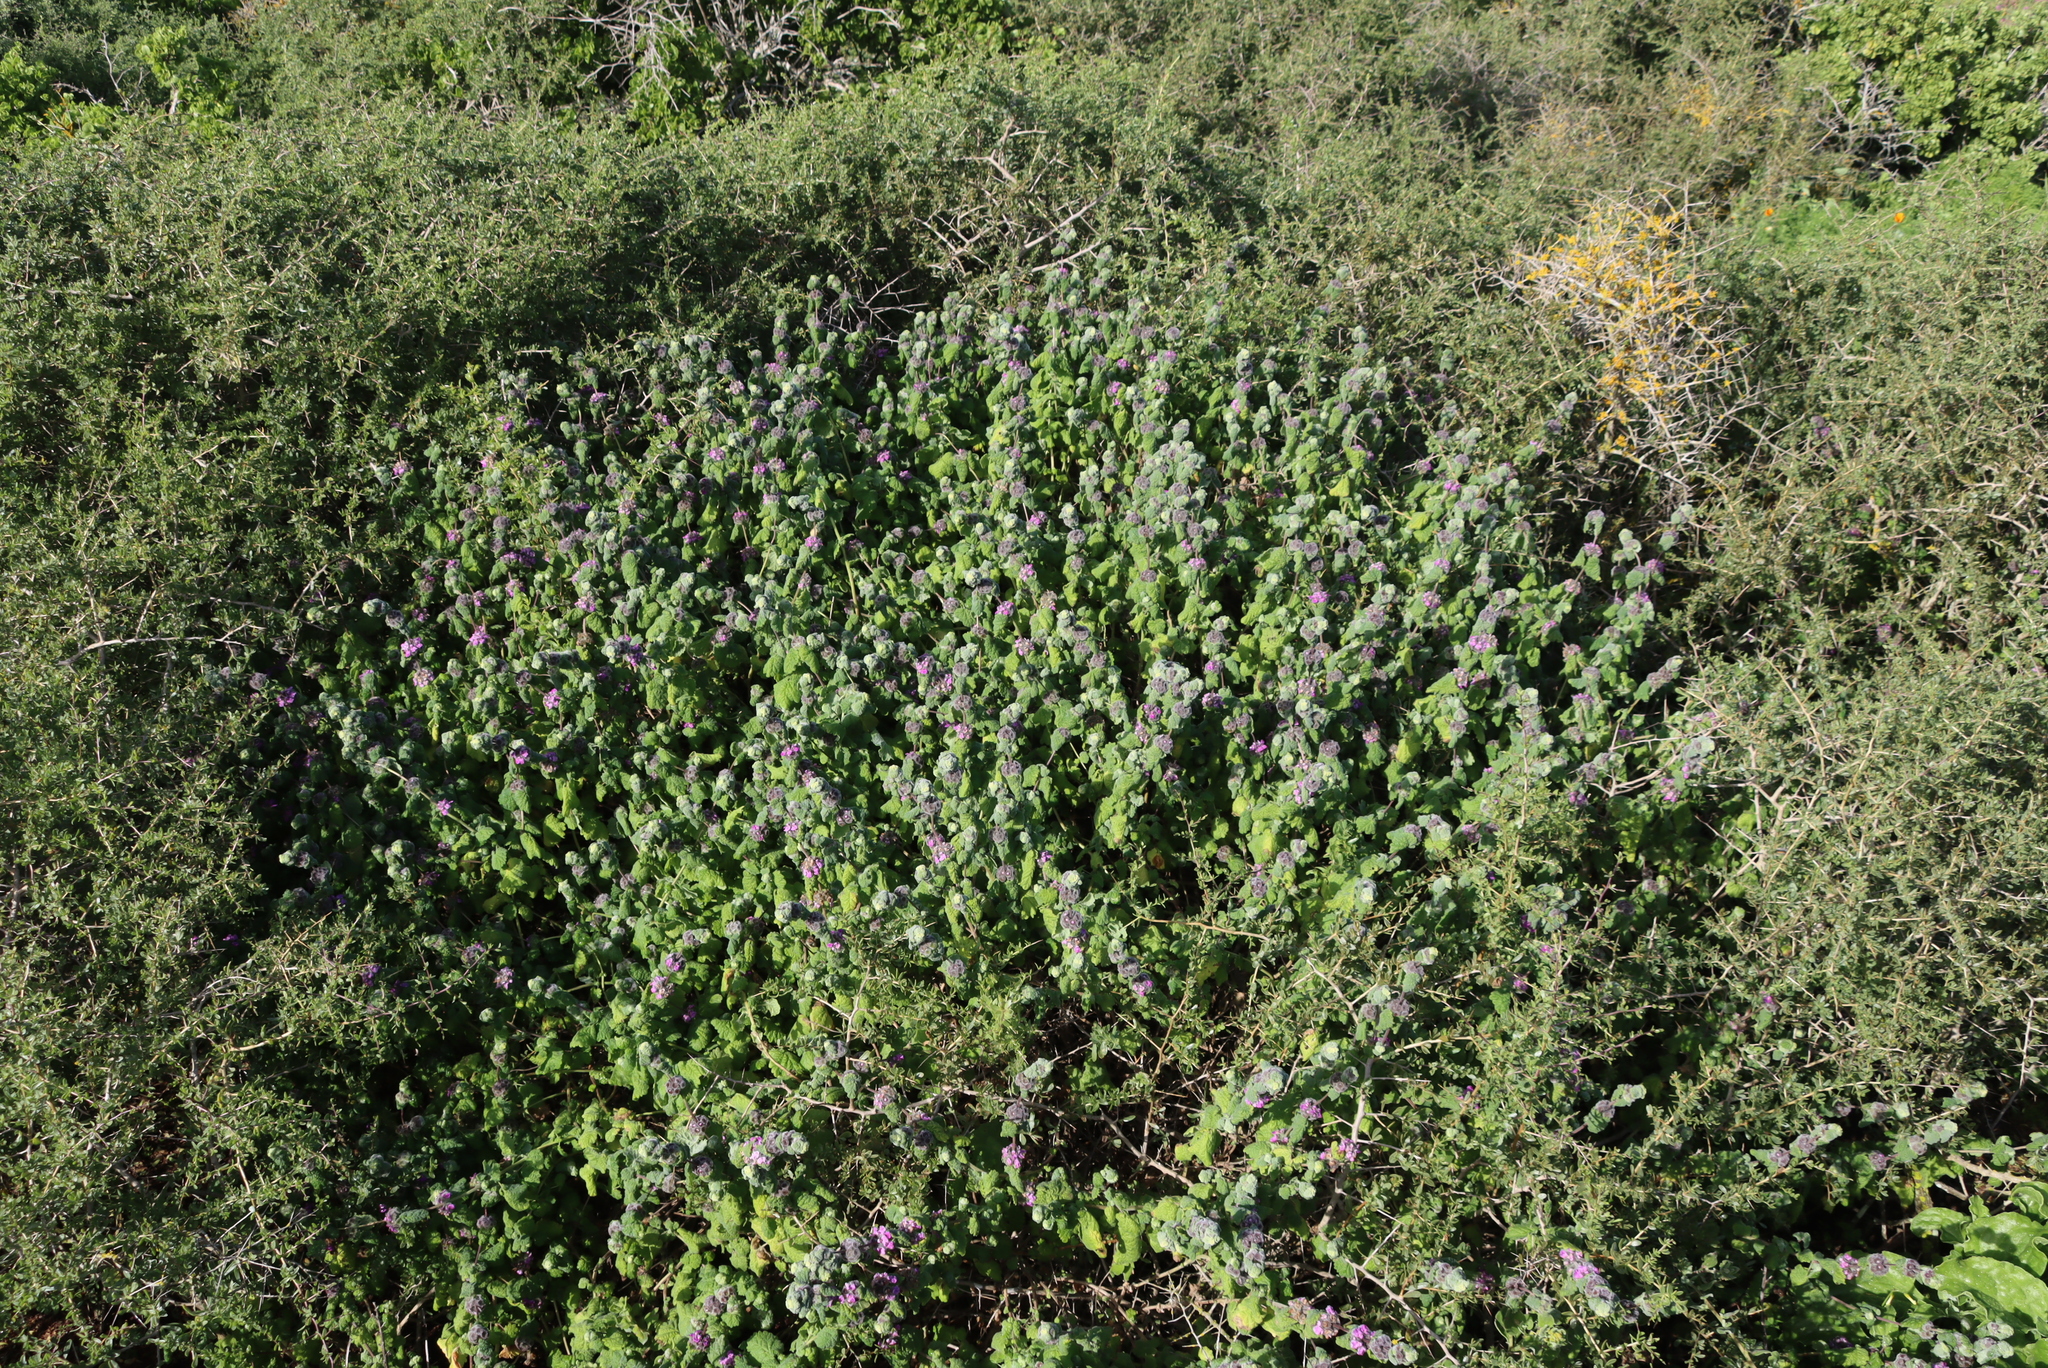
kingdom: Plantae
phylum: Tracheophyta
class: Magnoliopsida
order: Lamiales
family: Lamiaceae
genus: Pseudodictamnus
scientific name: Pseudodictamnus africanus
